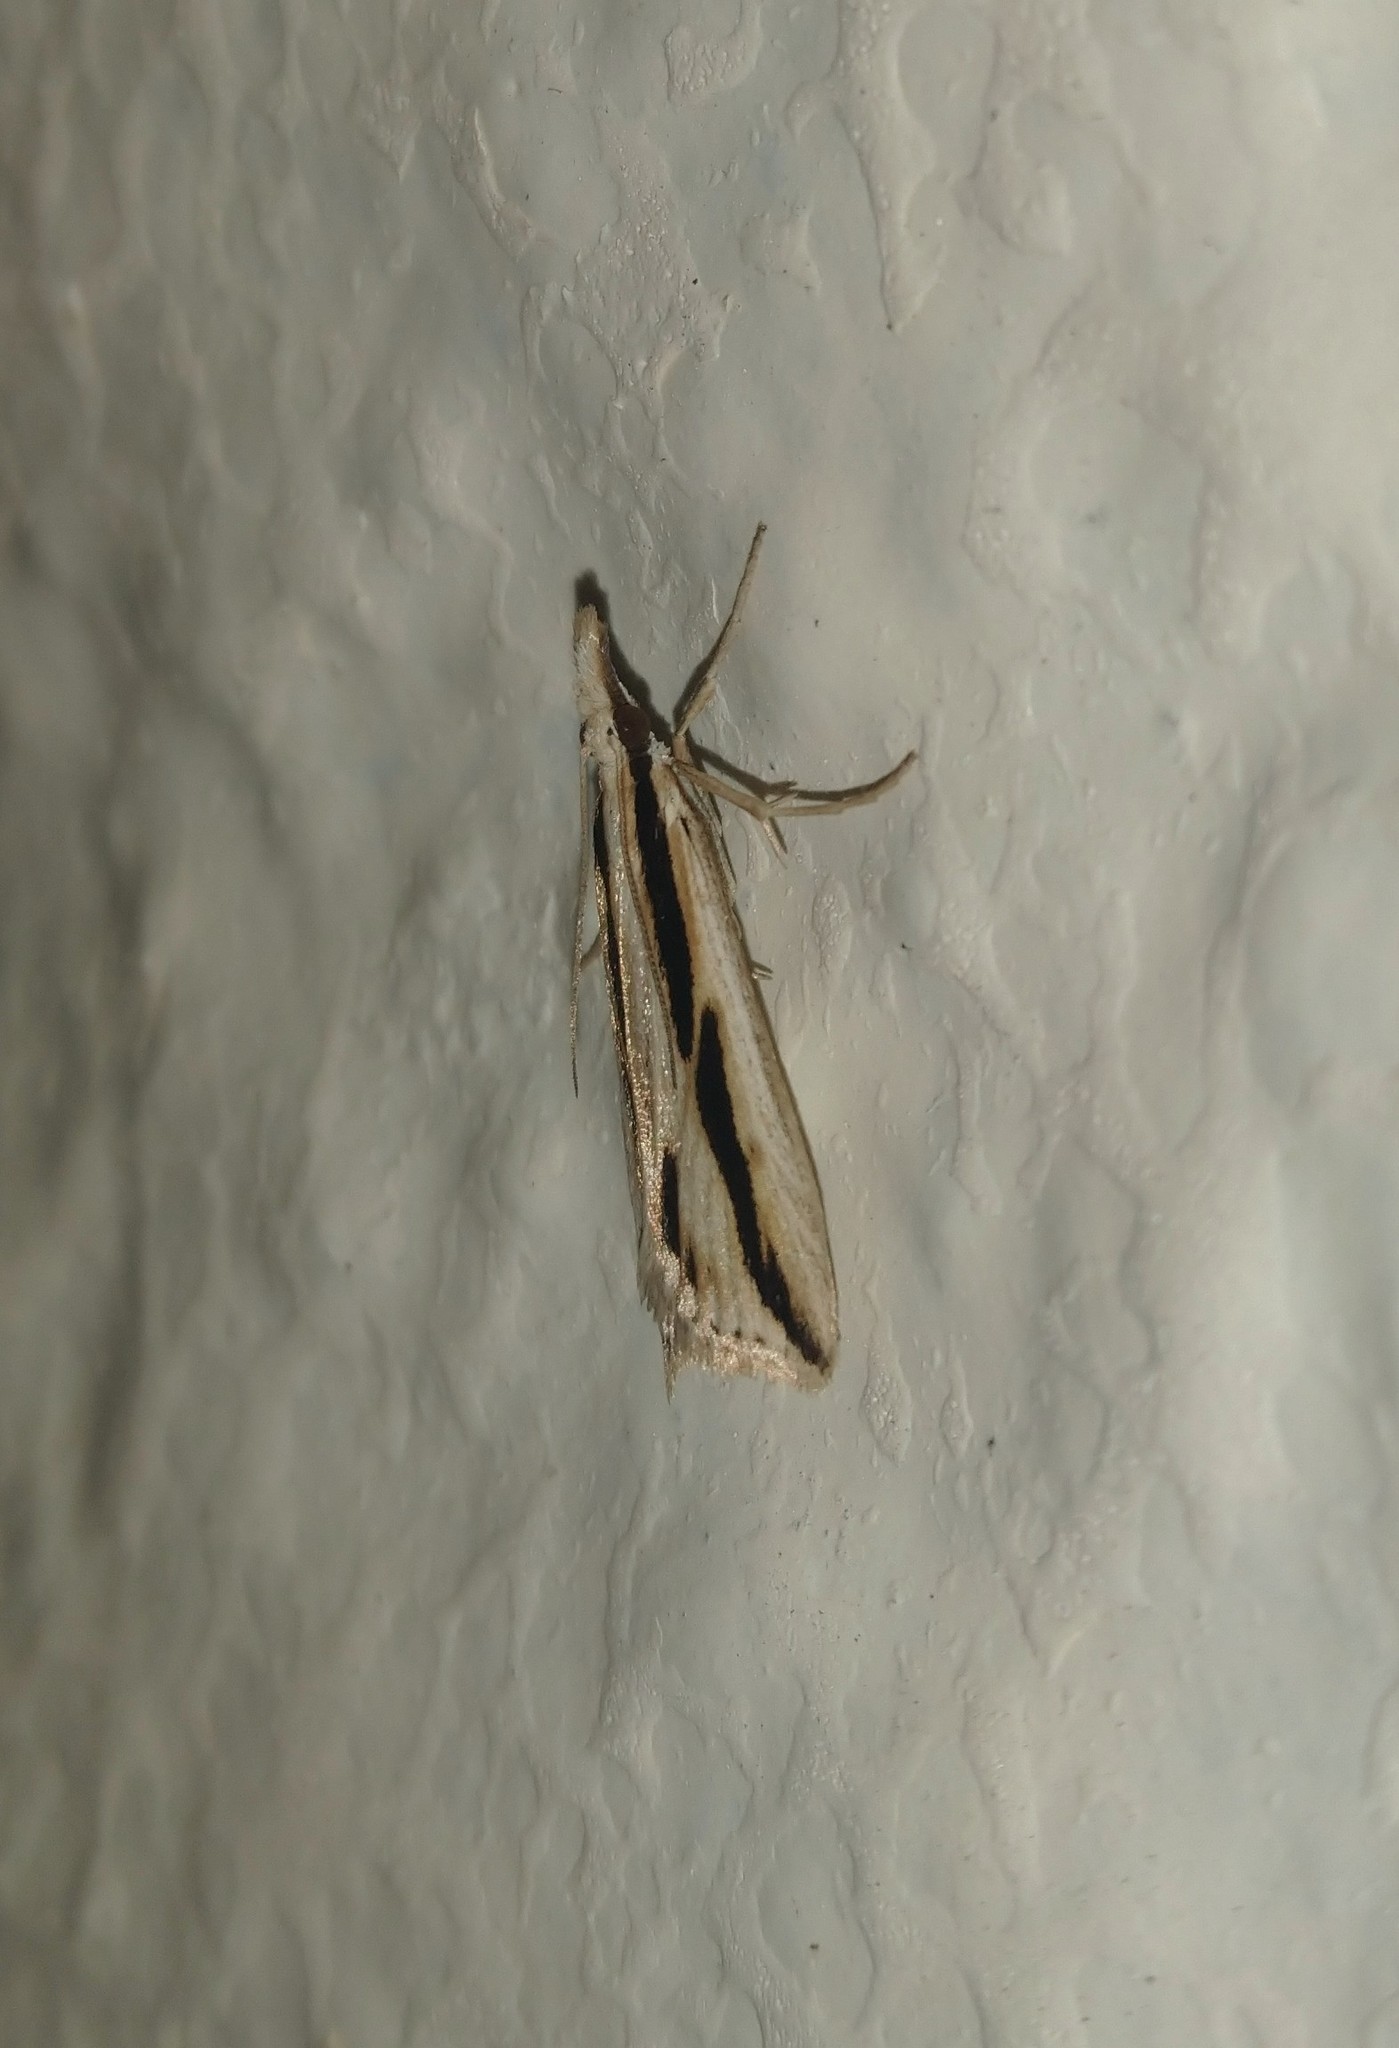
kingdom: Animalia
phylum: Arthropoda
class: Insecta
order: Lepidoptera
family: Crambidae
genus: Eudonia
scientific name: Eudonia trivirgata
